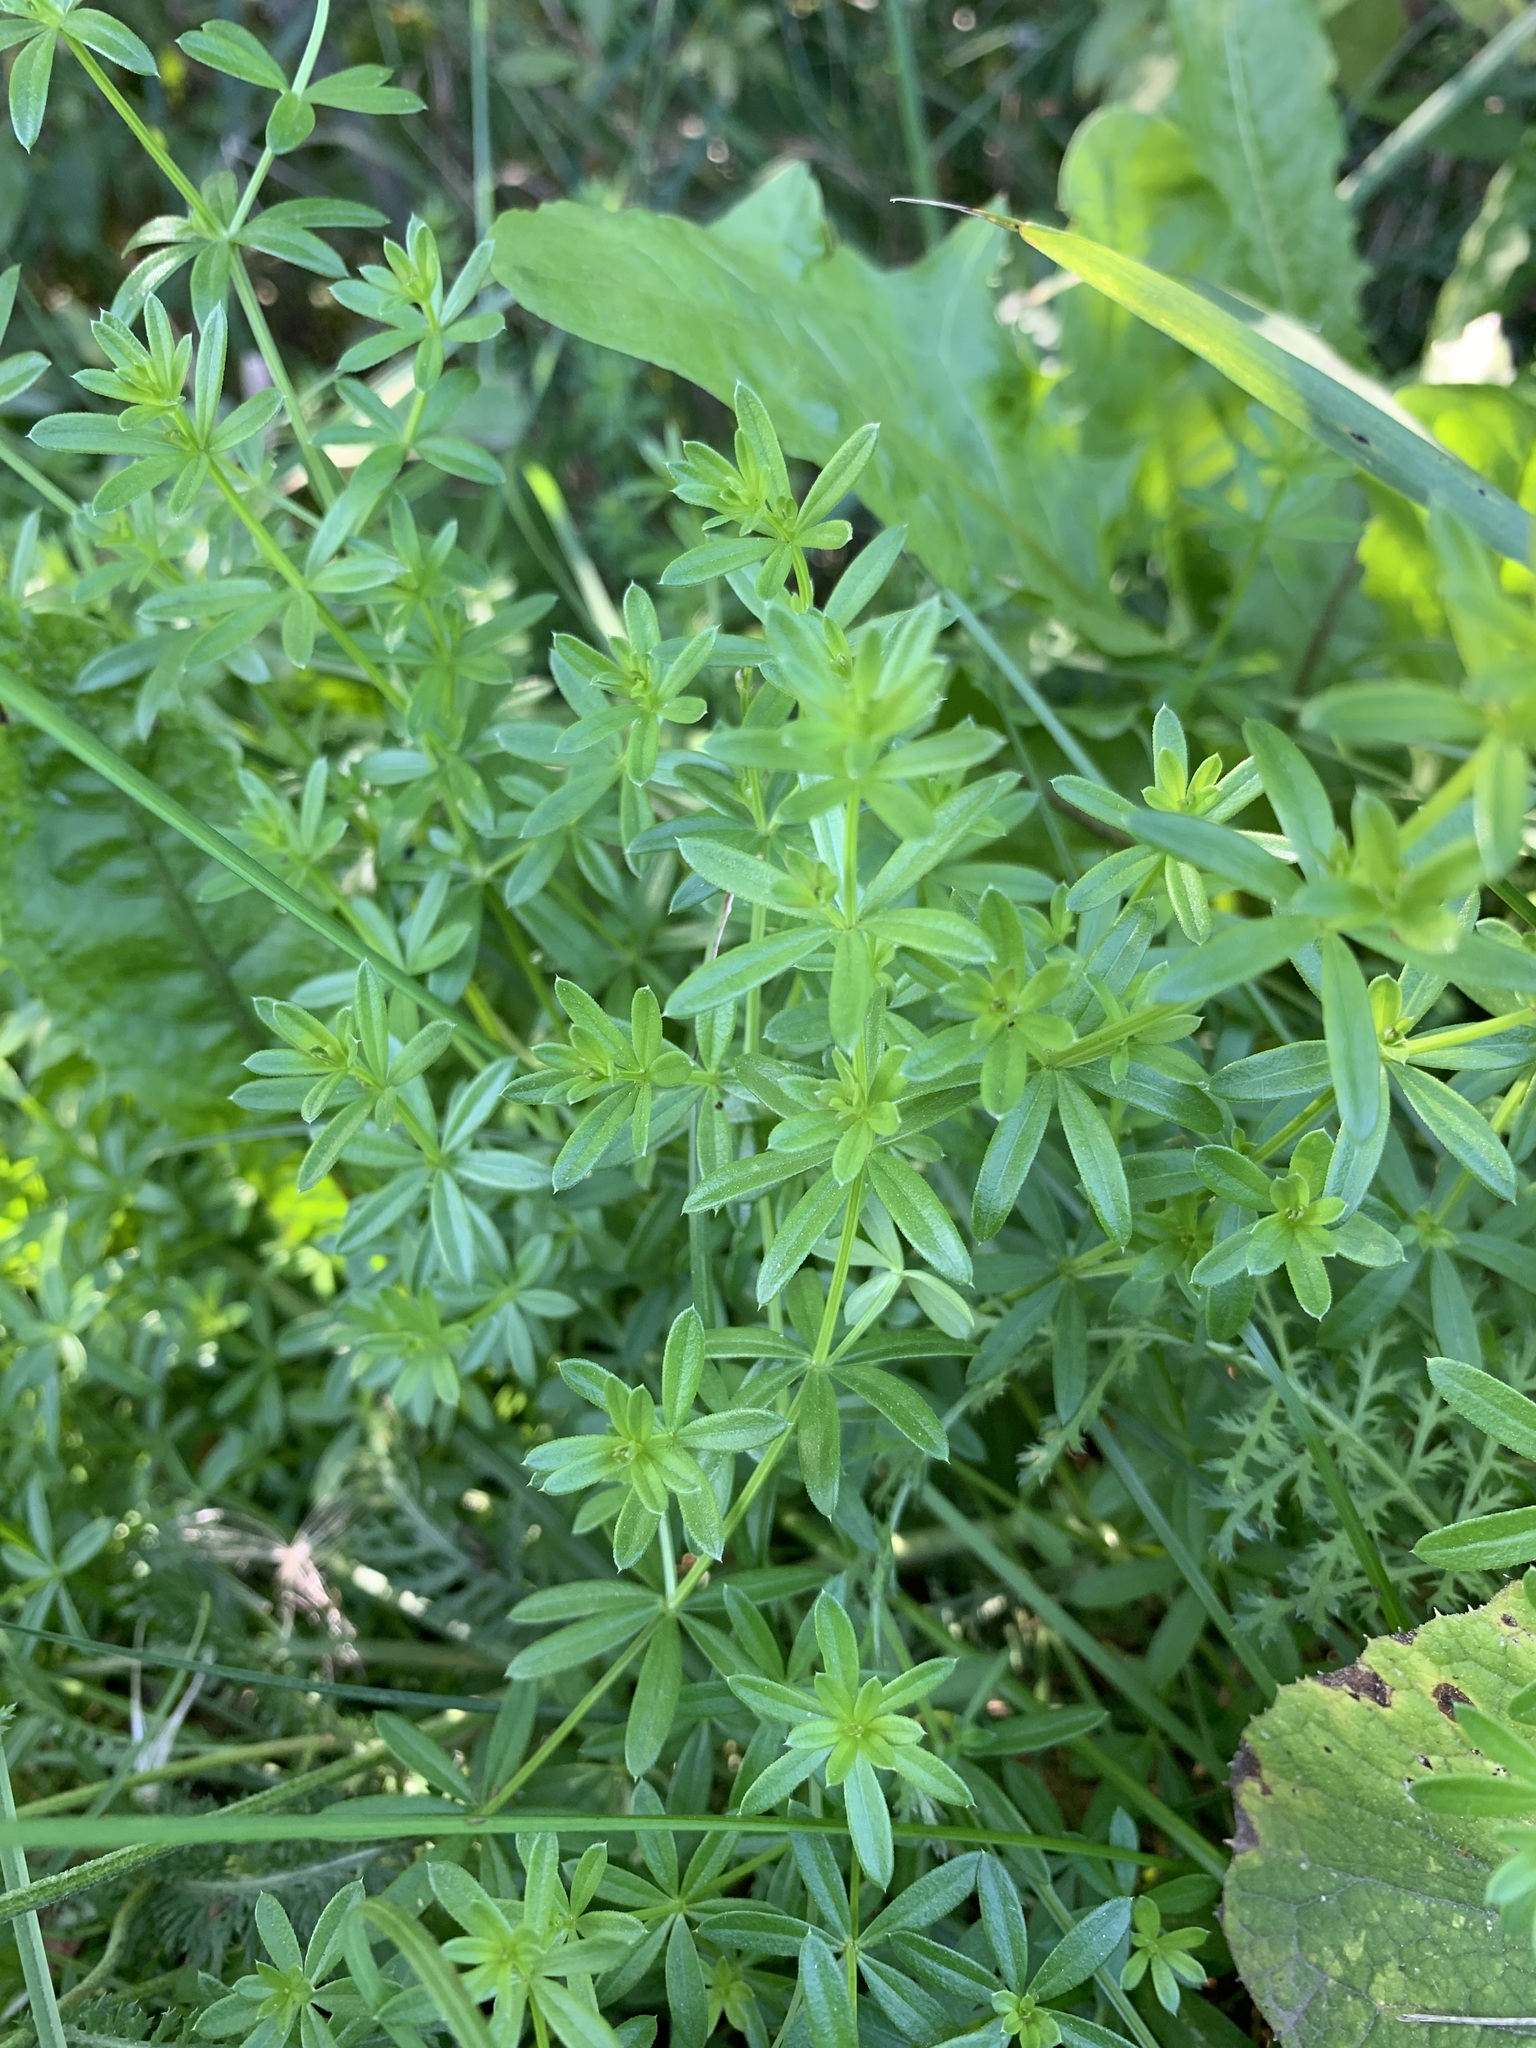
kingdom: Plantae
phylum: Tracheophyta
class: Magnoliopsida
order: Gentianales
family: Rubiaceae
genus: Galium
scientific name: Galium mollugo
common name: Hedge bedstraw
